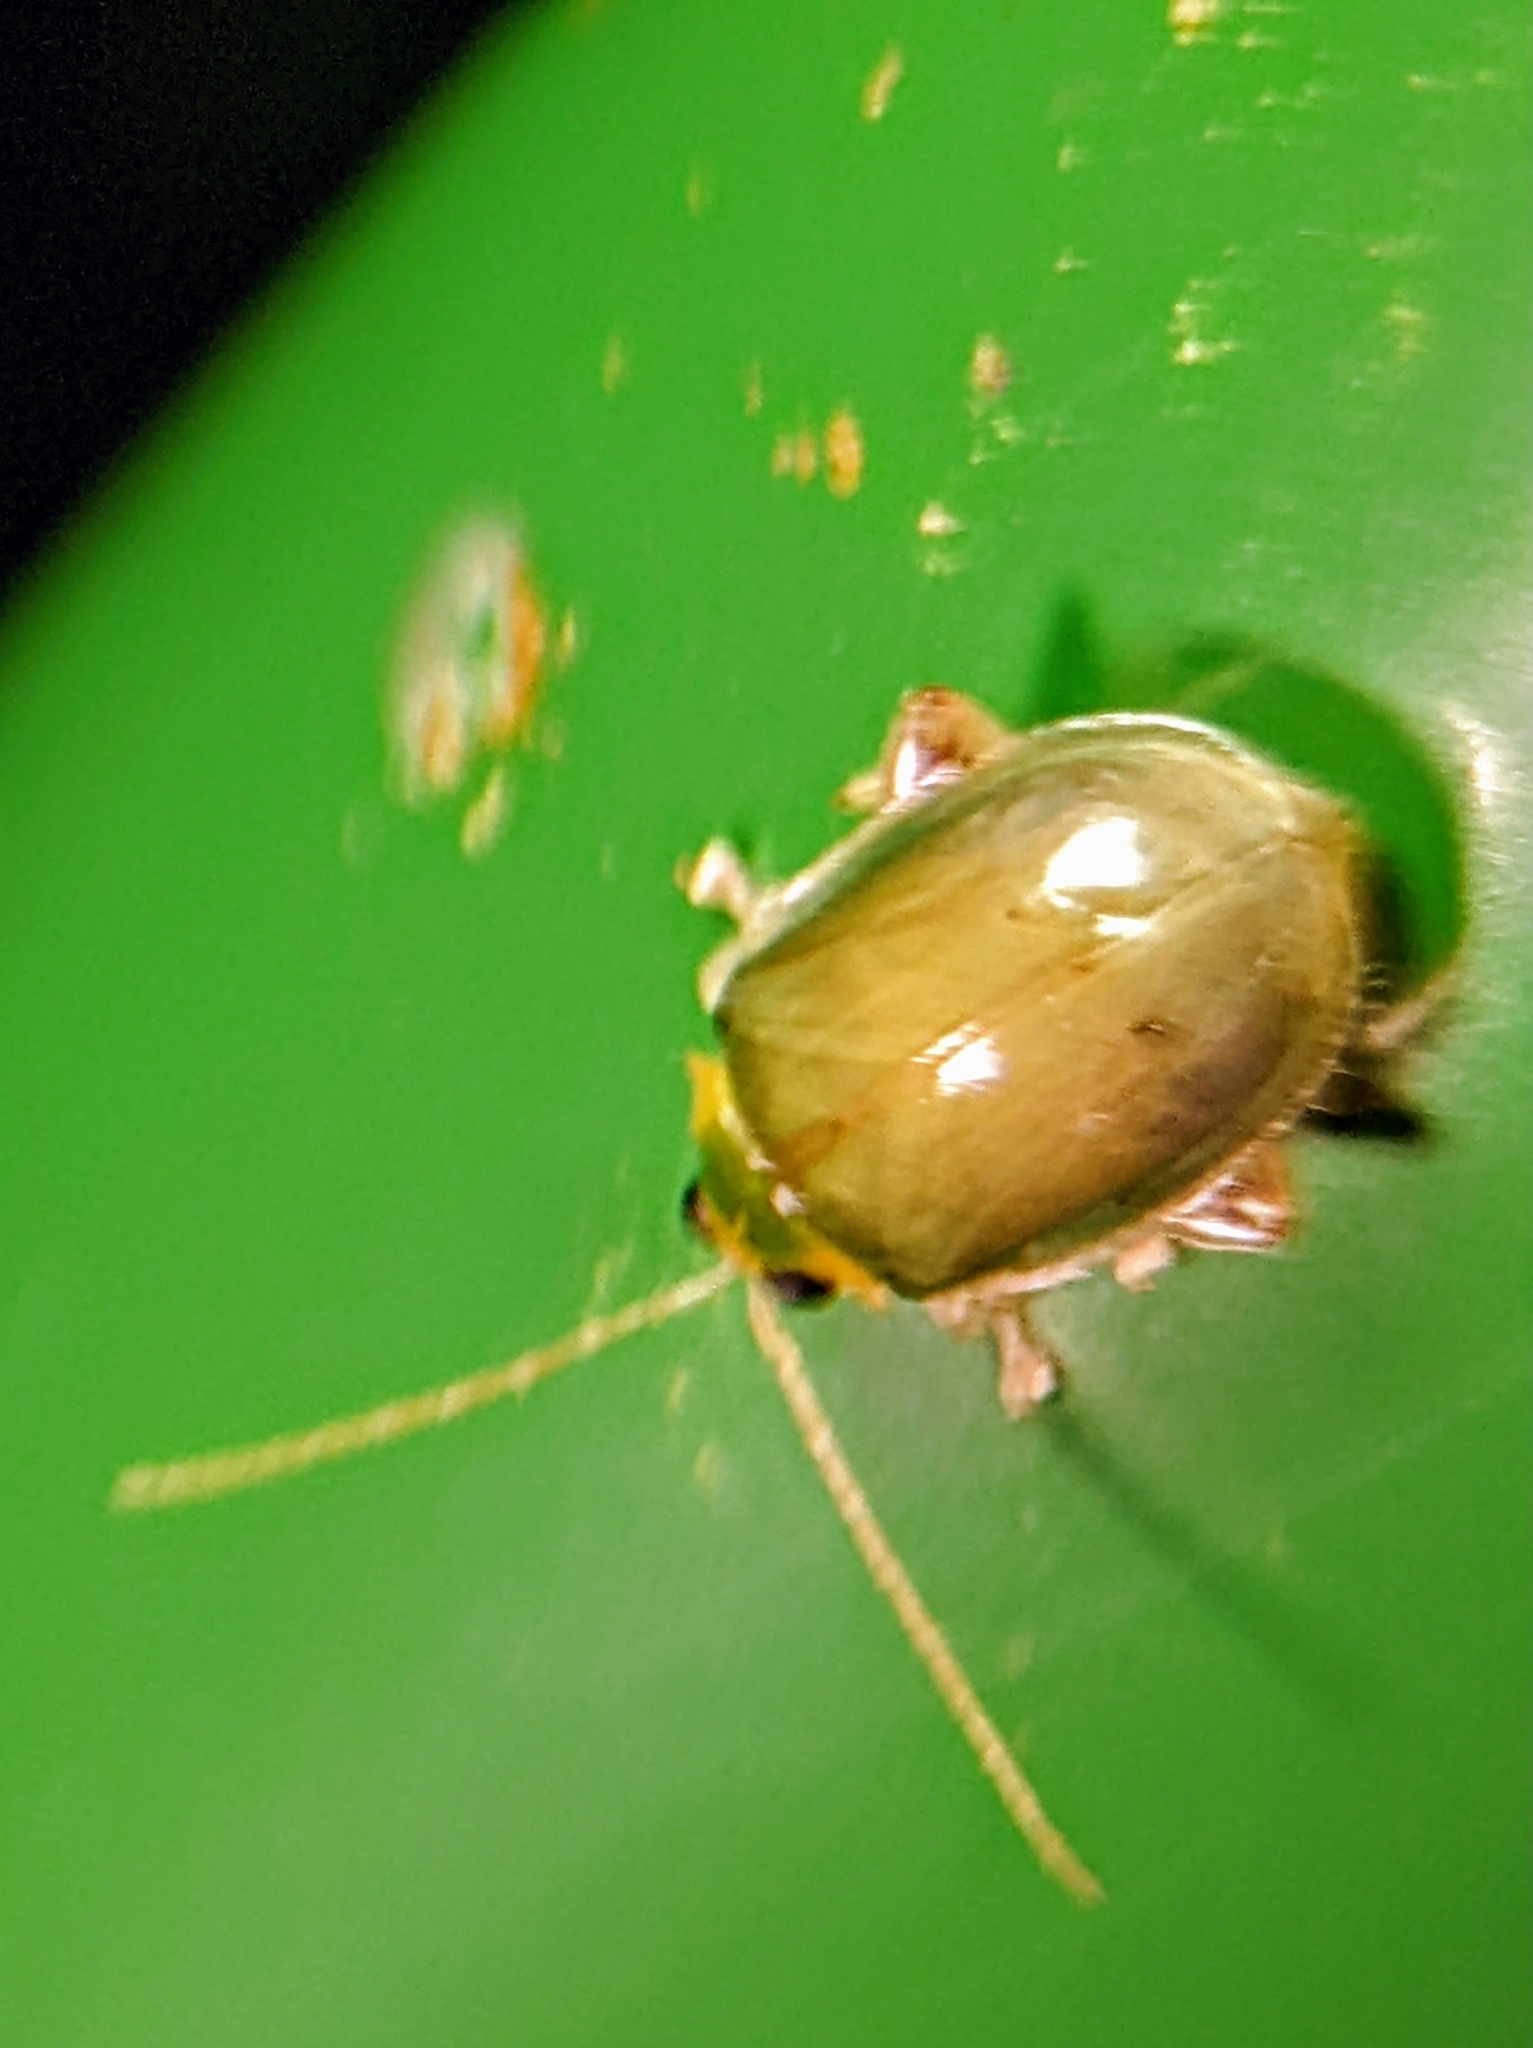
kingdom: Animalia
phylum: Arthropoda
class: Insecta
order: Coleoptera
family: Chrysomelidae
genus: Hemipyxis
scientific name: Hemipyxis
